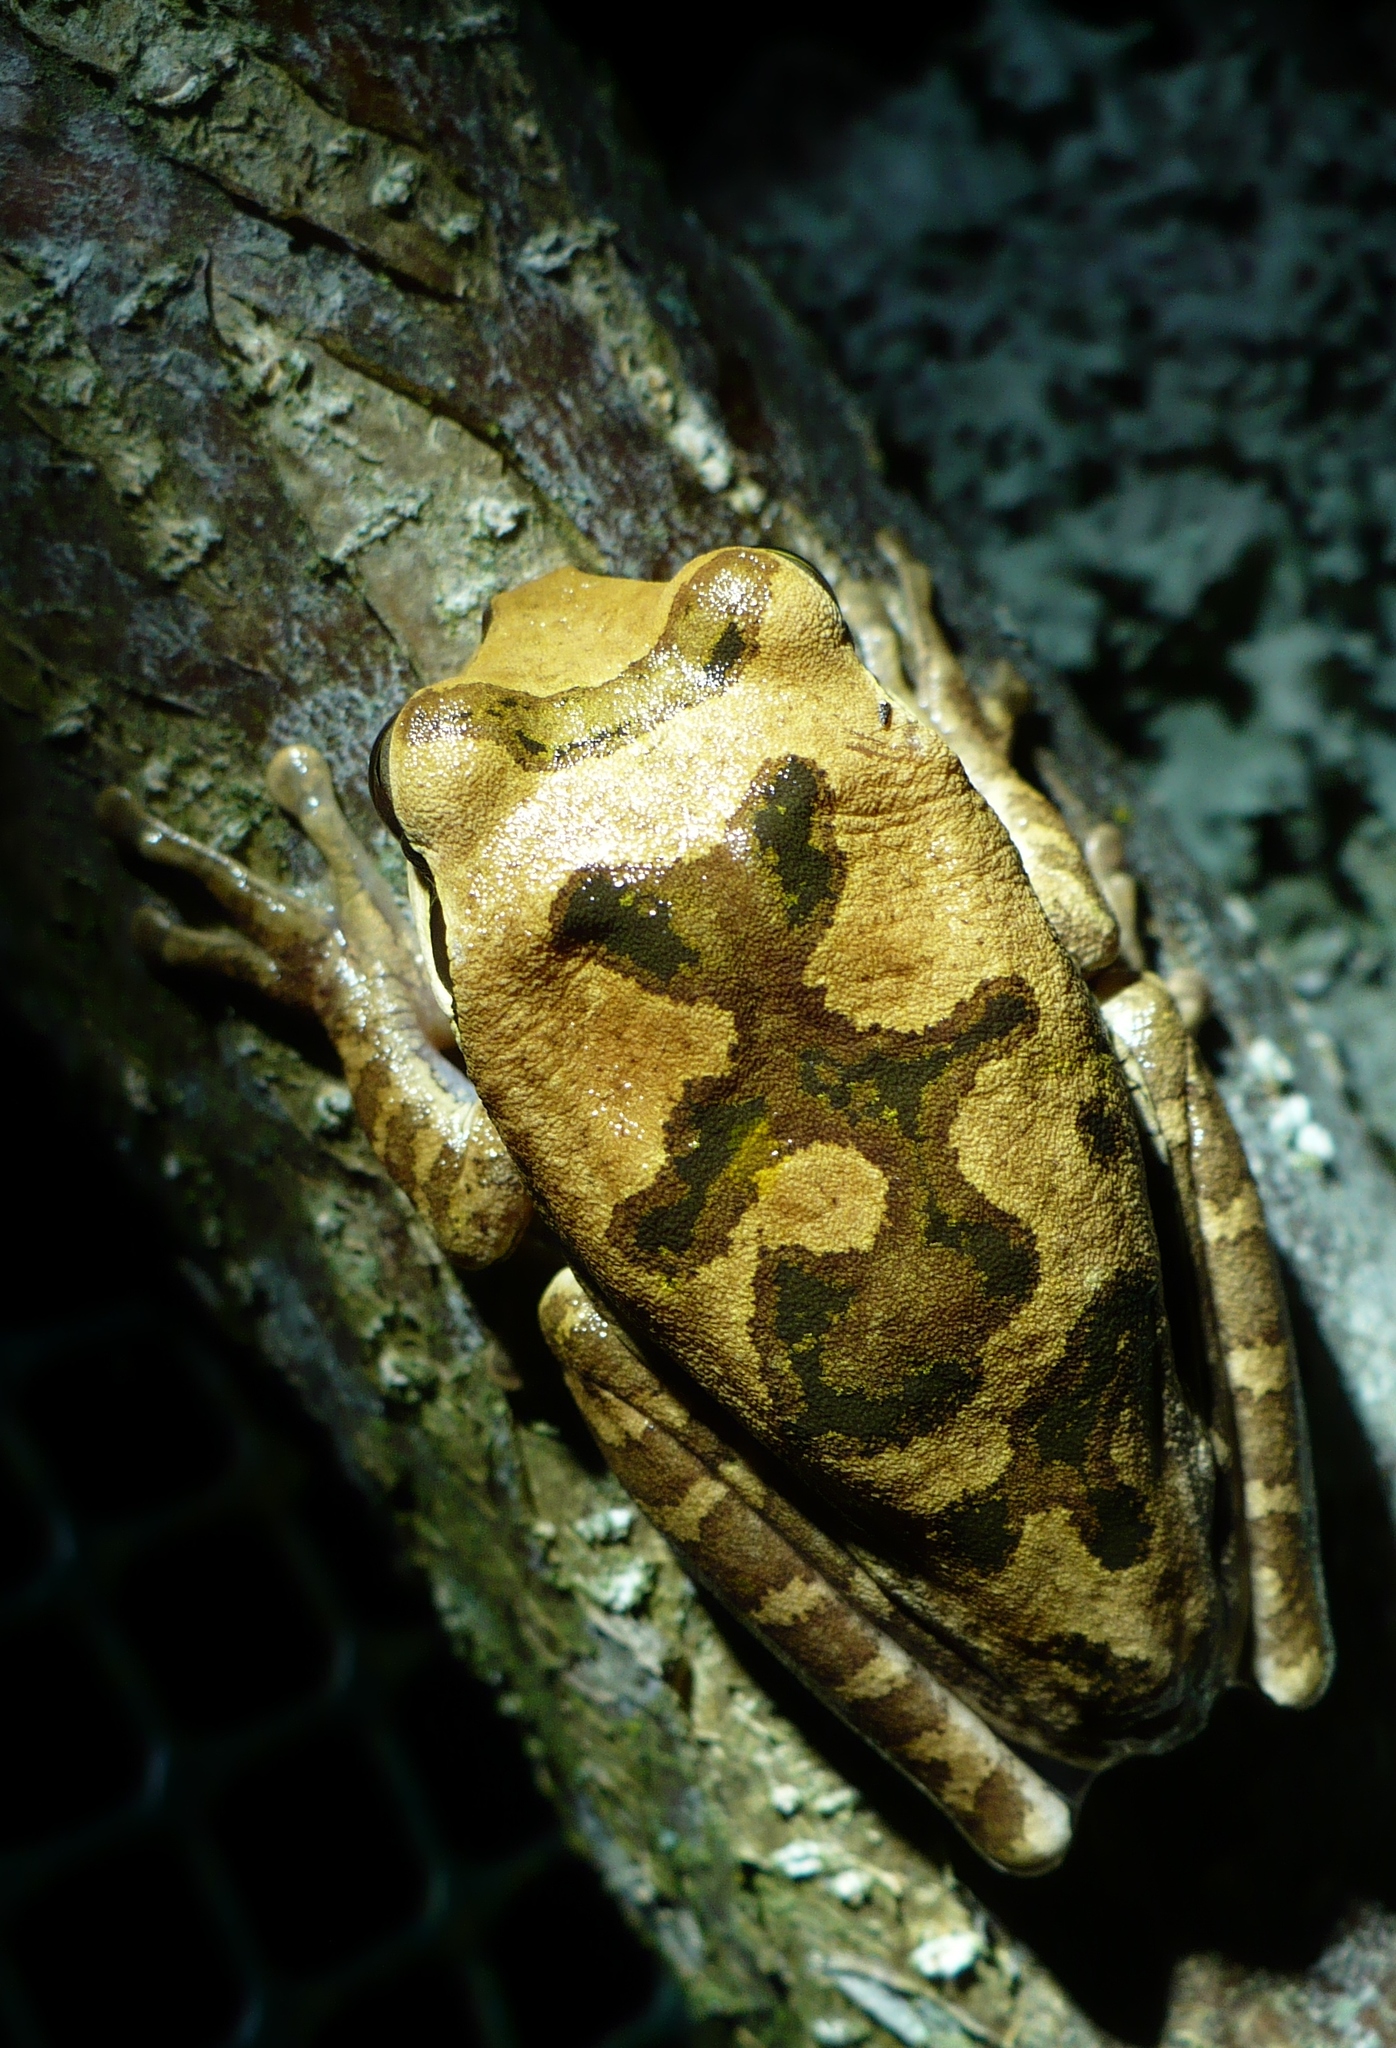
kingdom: Animalia
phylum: Chordata
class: Amphibia
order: Anura
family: Hylidae
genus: Smilisca
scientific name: Smilisca phaeota
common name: Central american smilisca
